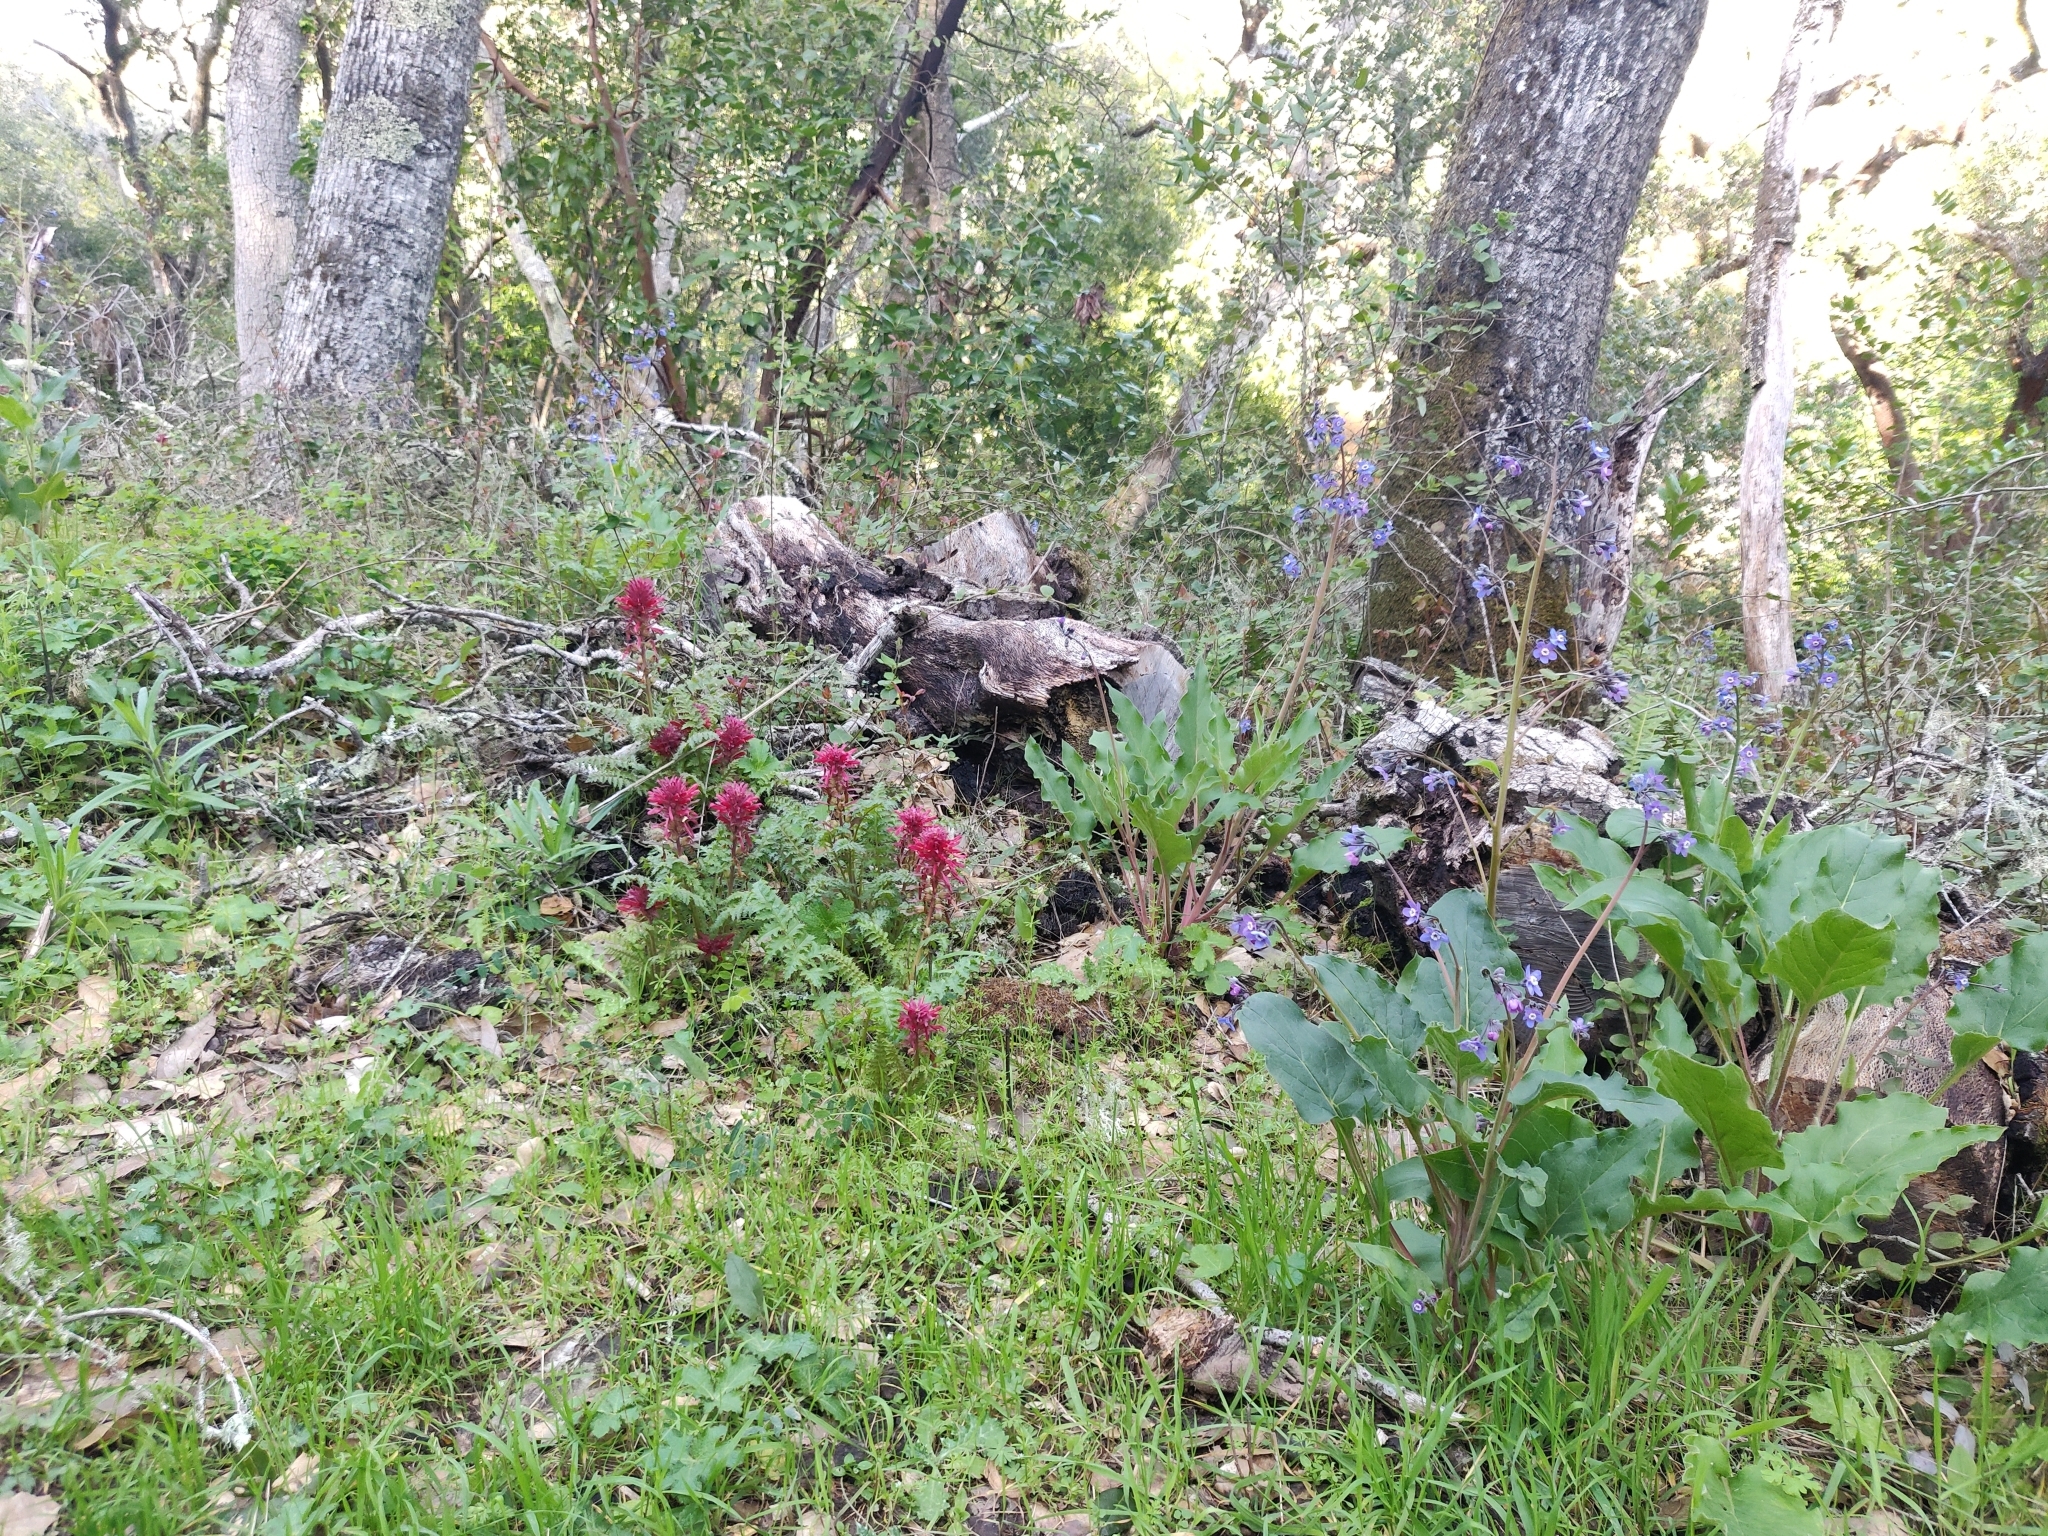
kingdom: Plantae
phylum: Tracheophyta
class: Magnoliopsida
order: Lamiales
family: Orobanchaceae
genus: Pedicularis
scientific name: Pedicularis densiflora
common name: Indian warrior
